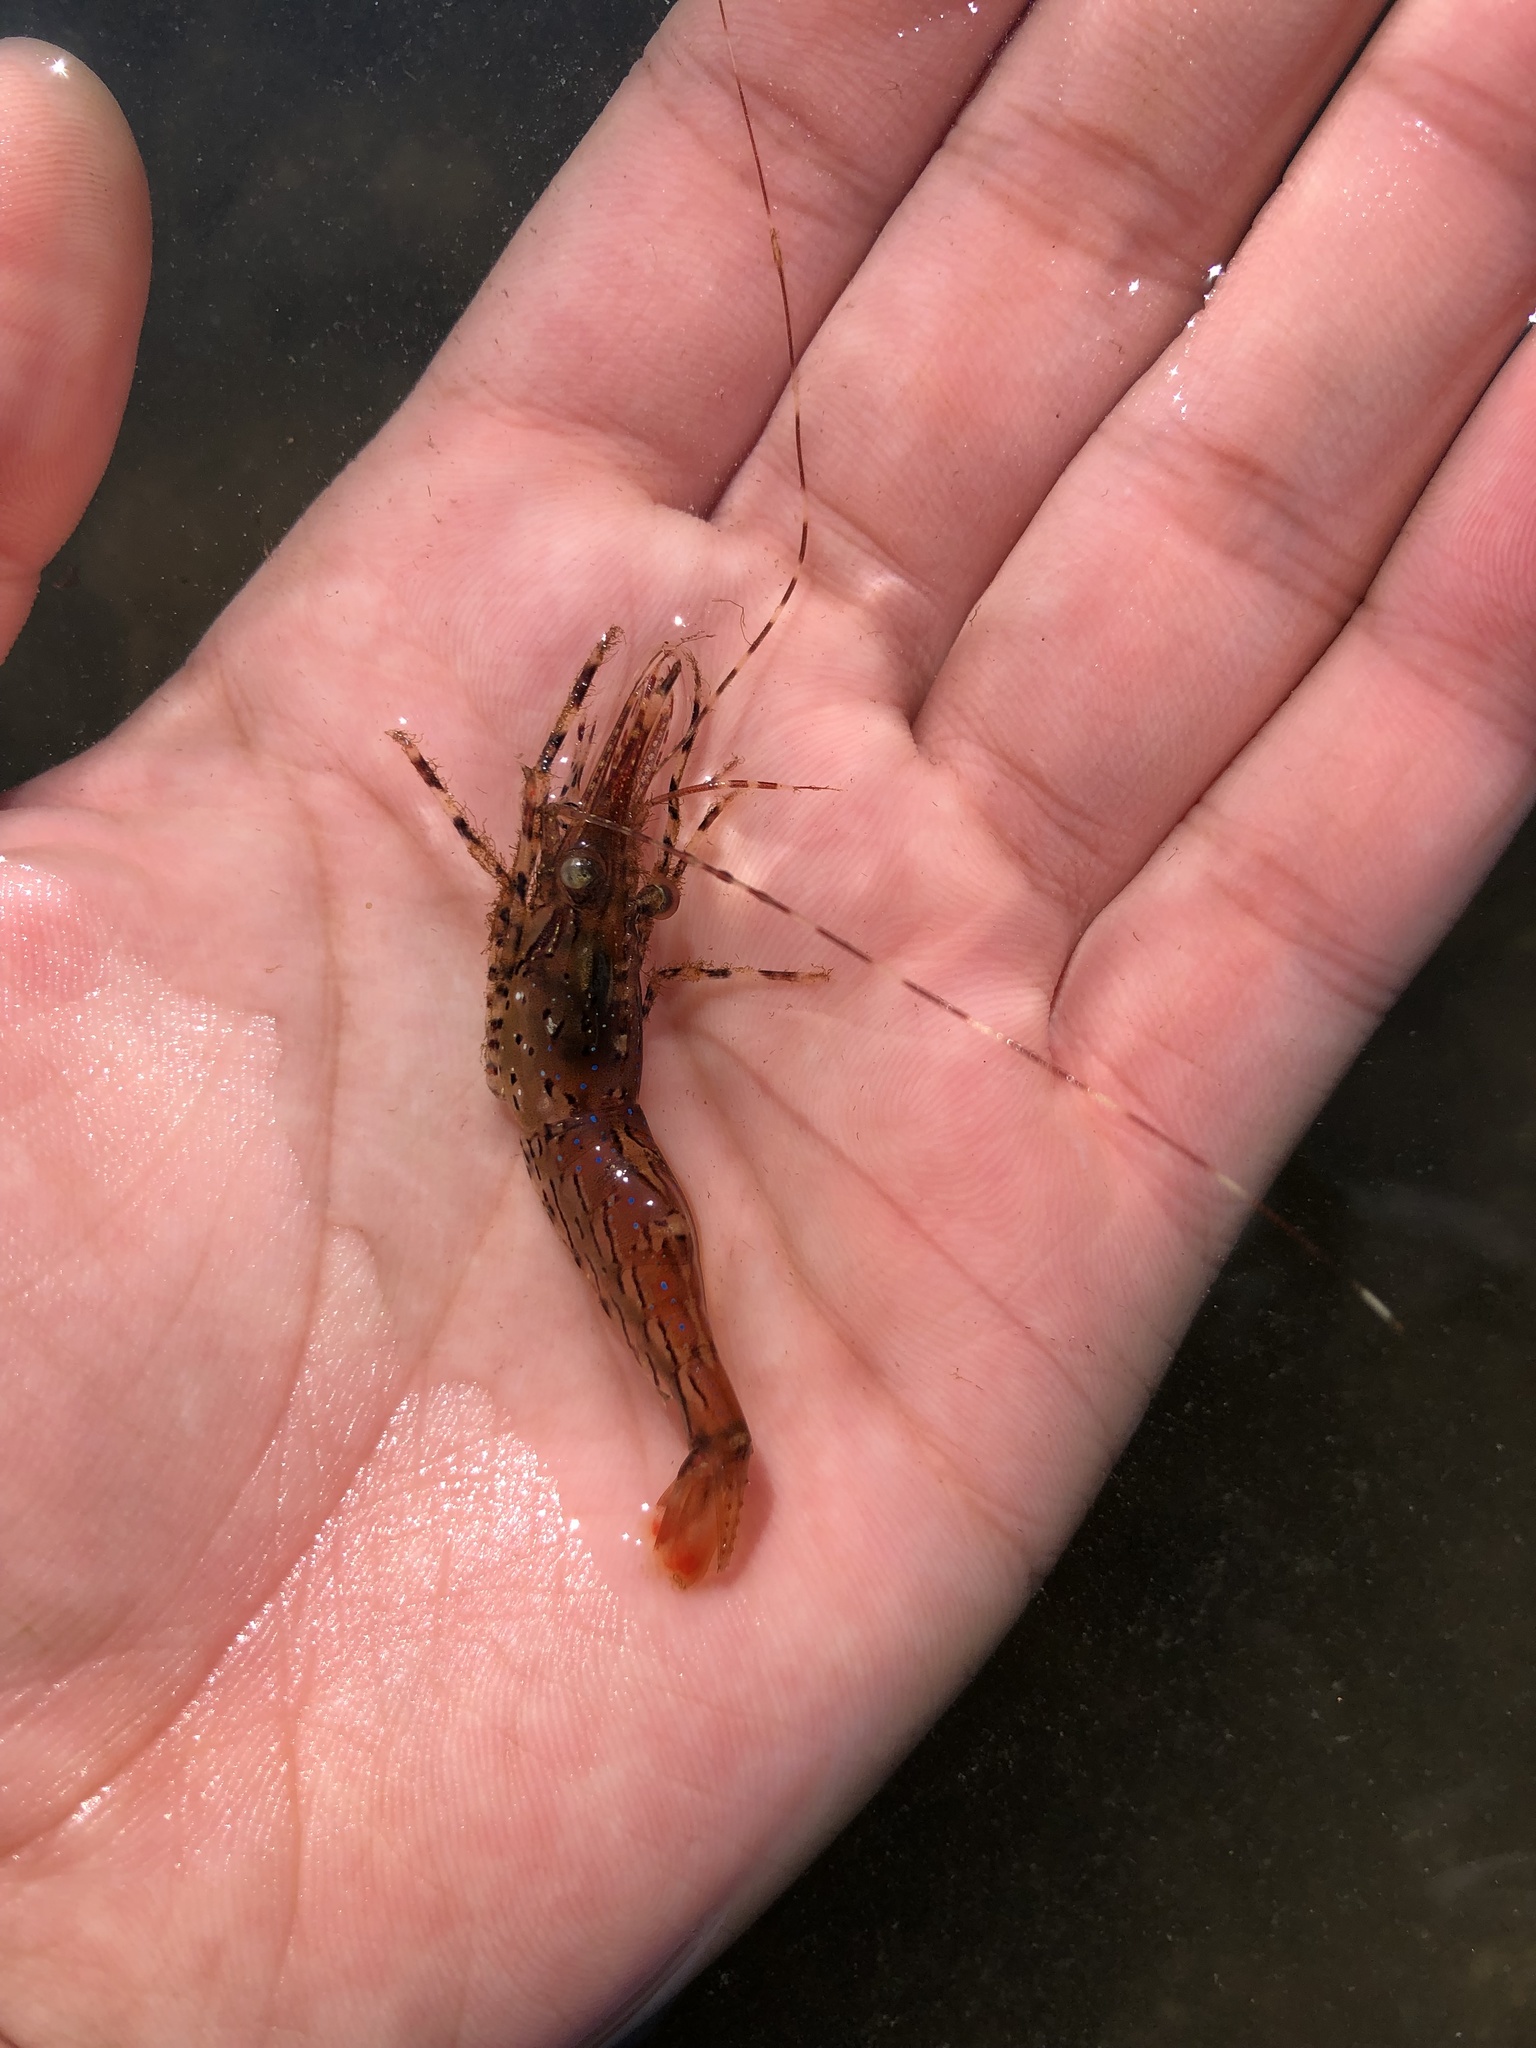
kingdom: Animalia
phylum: Arthropoda
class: Malacostraca
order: Decapoda
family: Pandalidae
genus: Pandalus
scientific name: Pandalus danae
